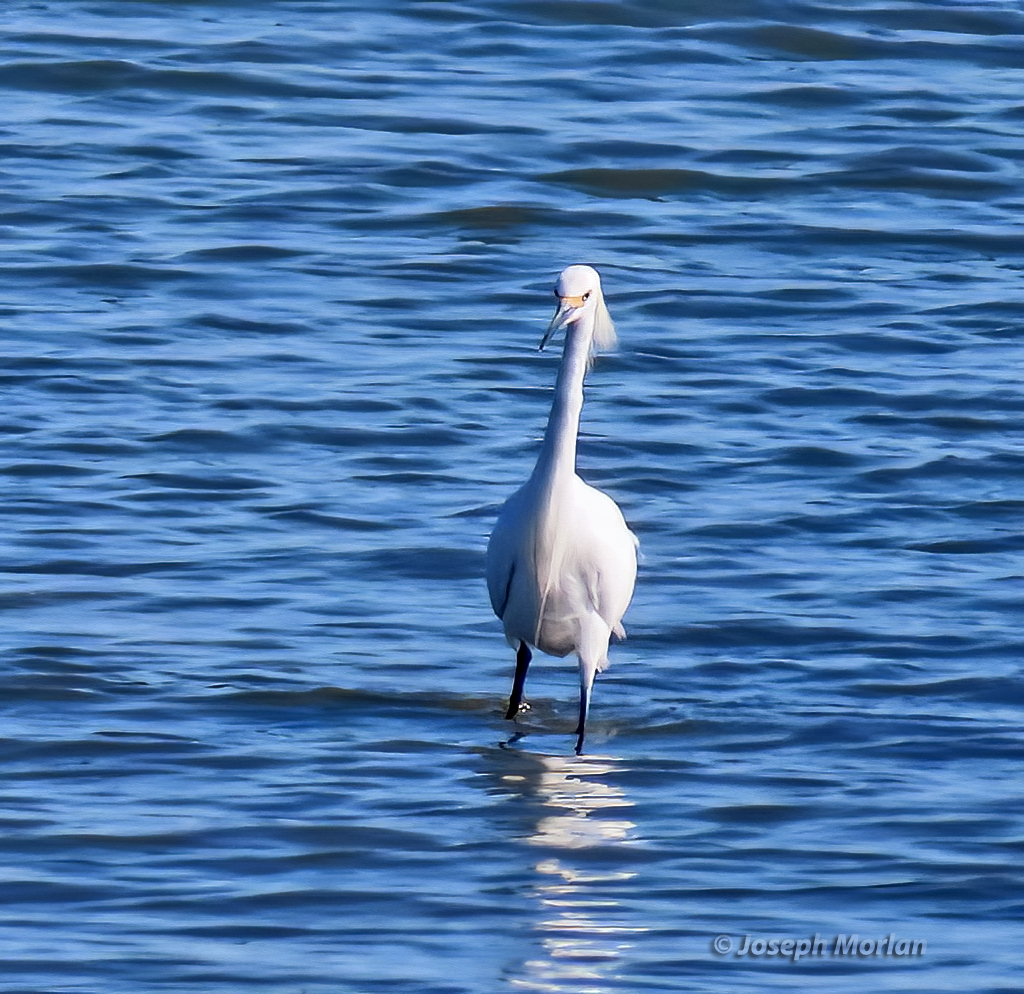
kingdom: Animalia
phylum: Chordata
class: Aves
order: Pelecaniformes
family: Ardeidae
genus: Egretta
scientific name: Egretta thula
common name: Snowy egret
